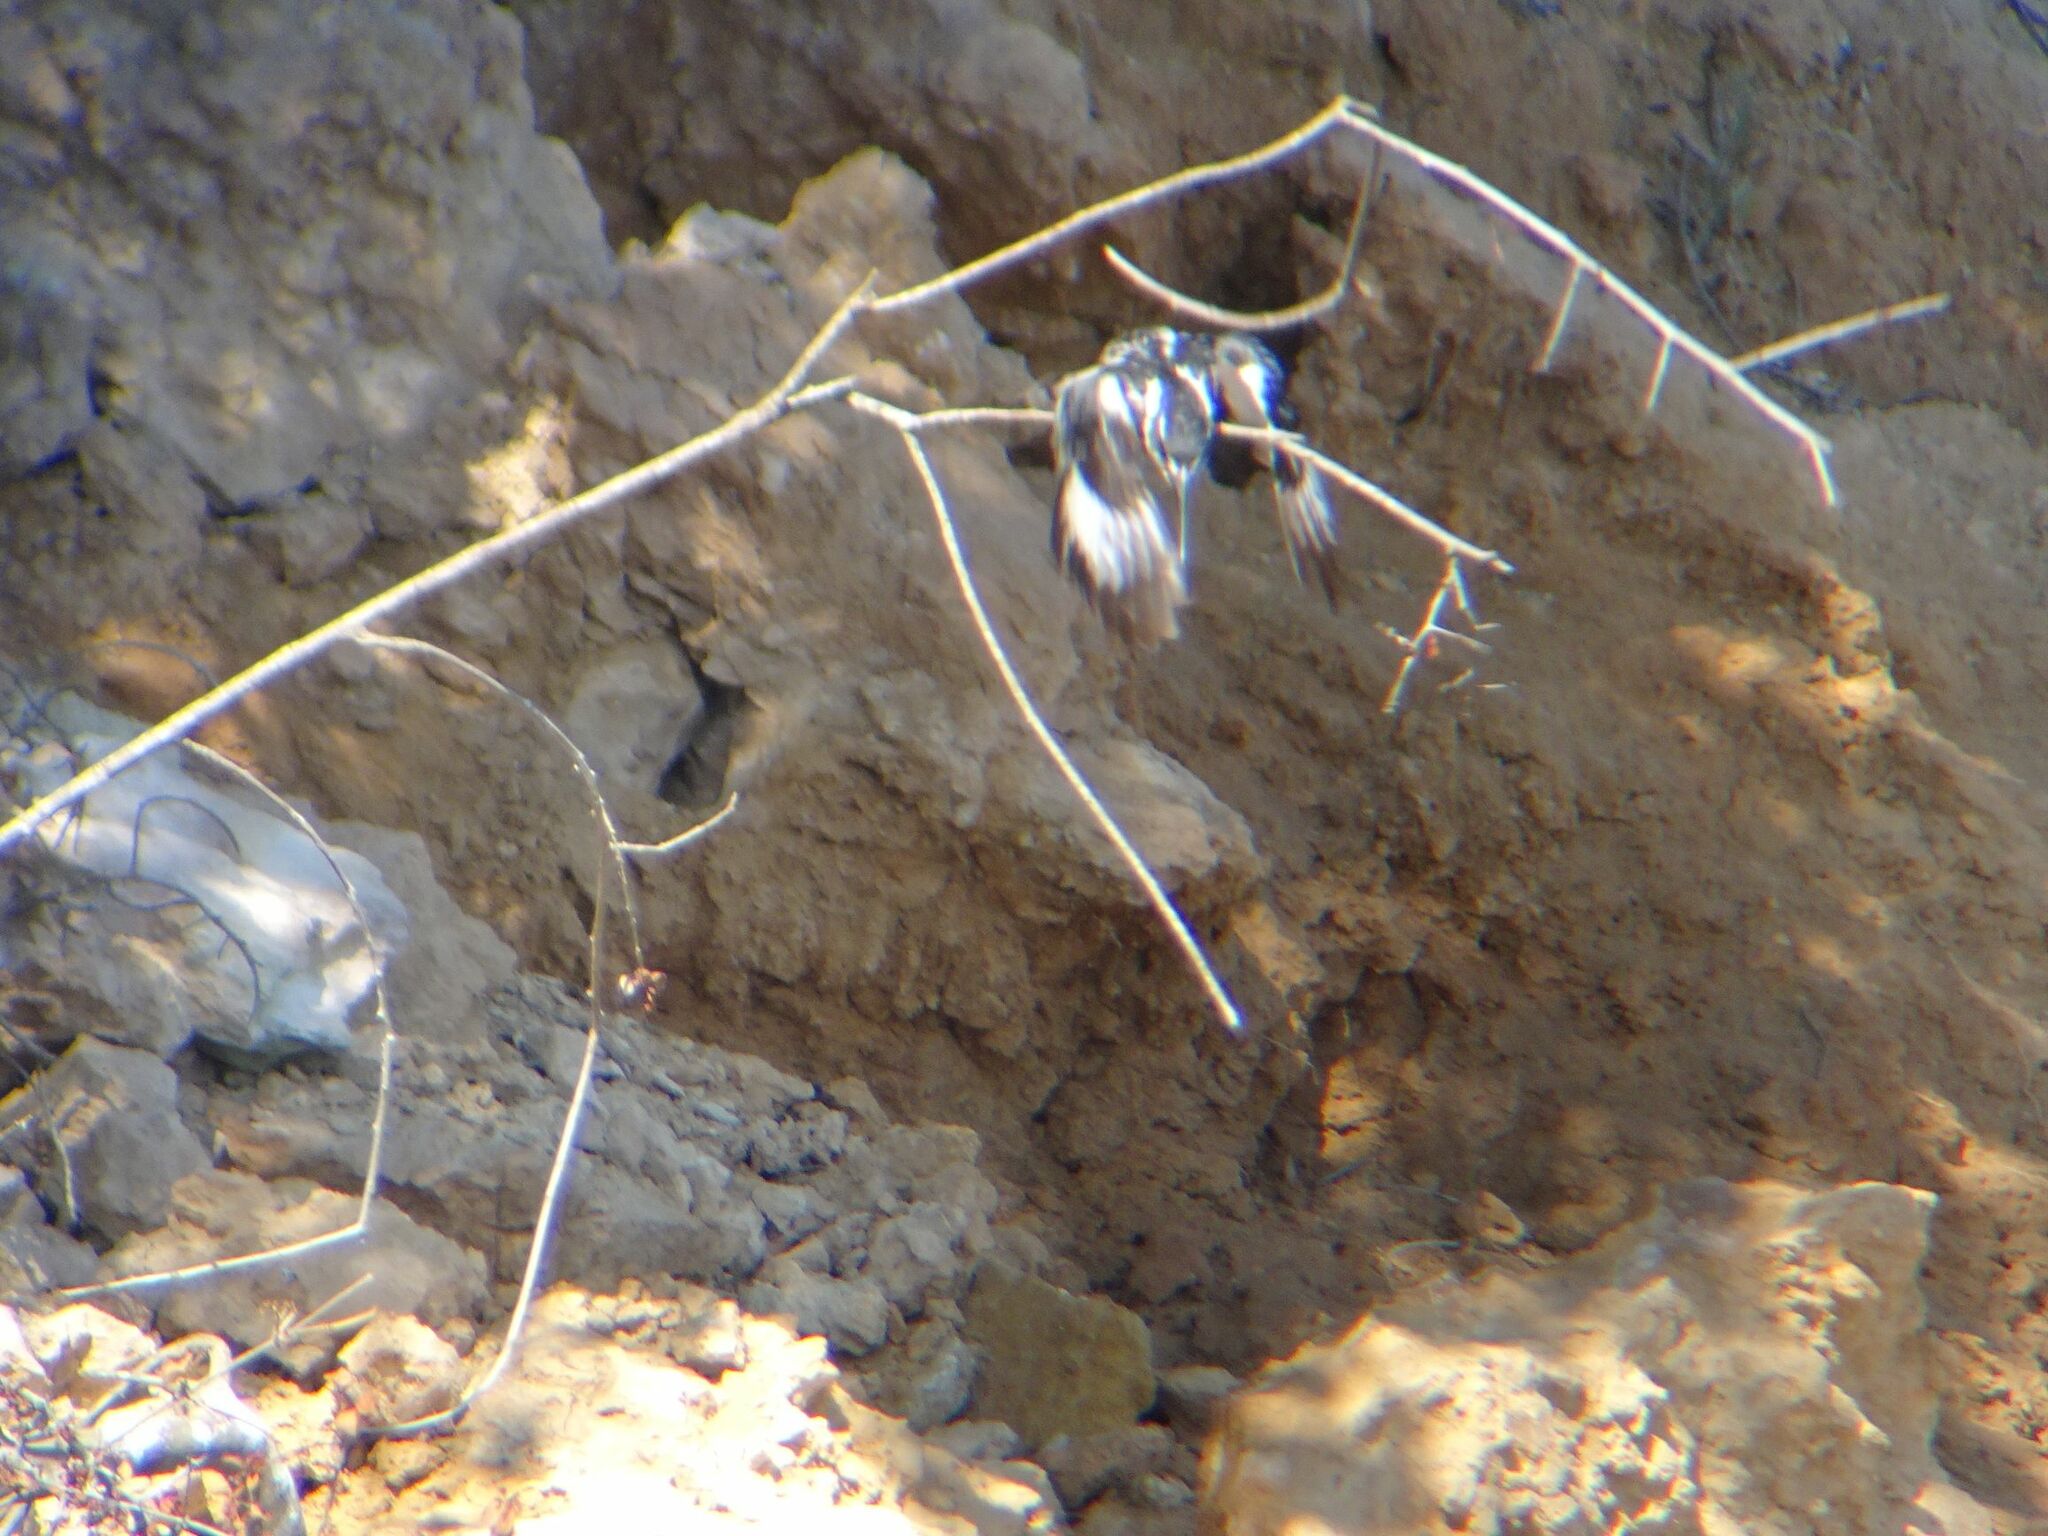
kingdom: Animalia
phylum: Chordata
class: Aves
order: Coraciiformes
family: Alcedinidae
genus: Ceryle
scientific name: Ceryle rudis
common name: Pied kingfisher
